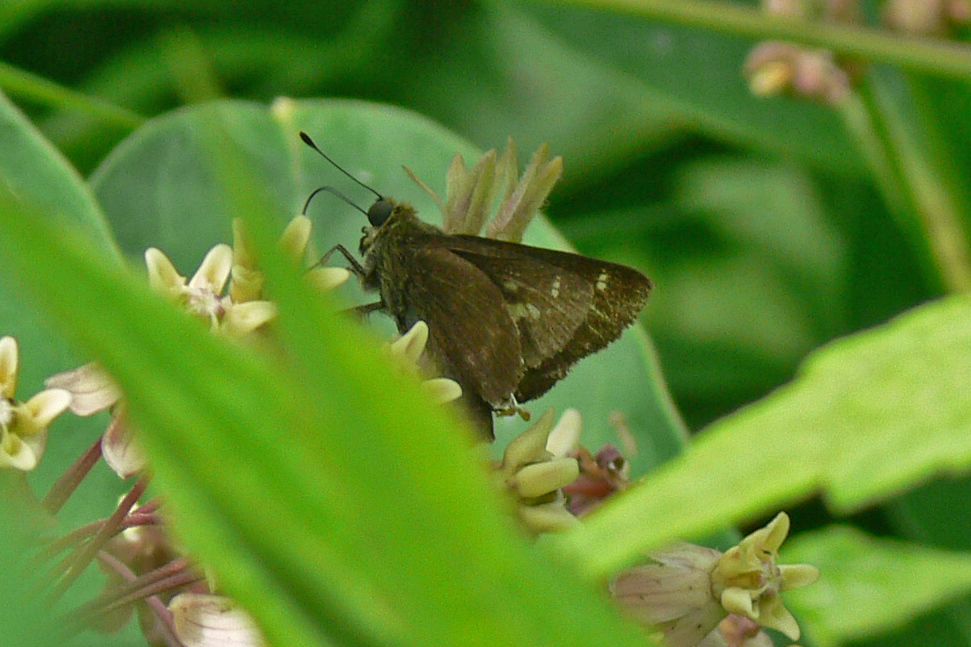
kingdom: Animalia
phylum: Arthropoda
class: Insecta
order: Lepidoptera
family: Hesperiidae
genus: Vernia
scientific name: Vernia verna
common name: Little glassywing
